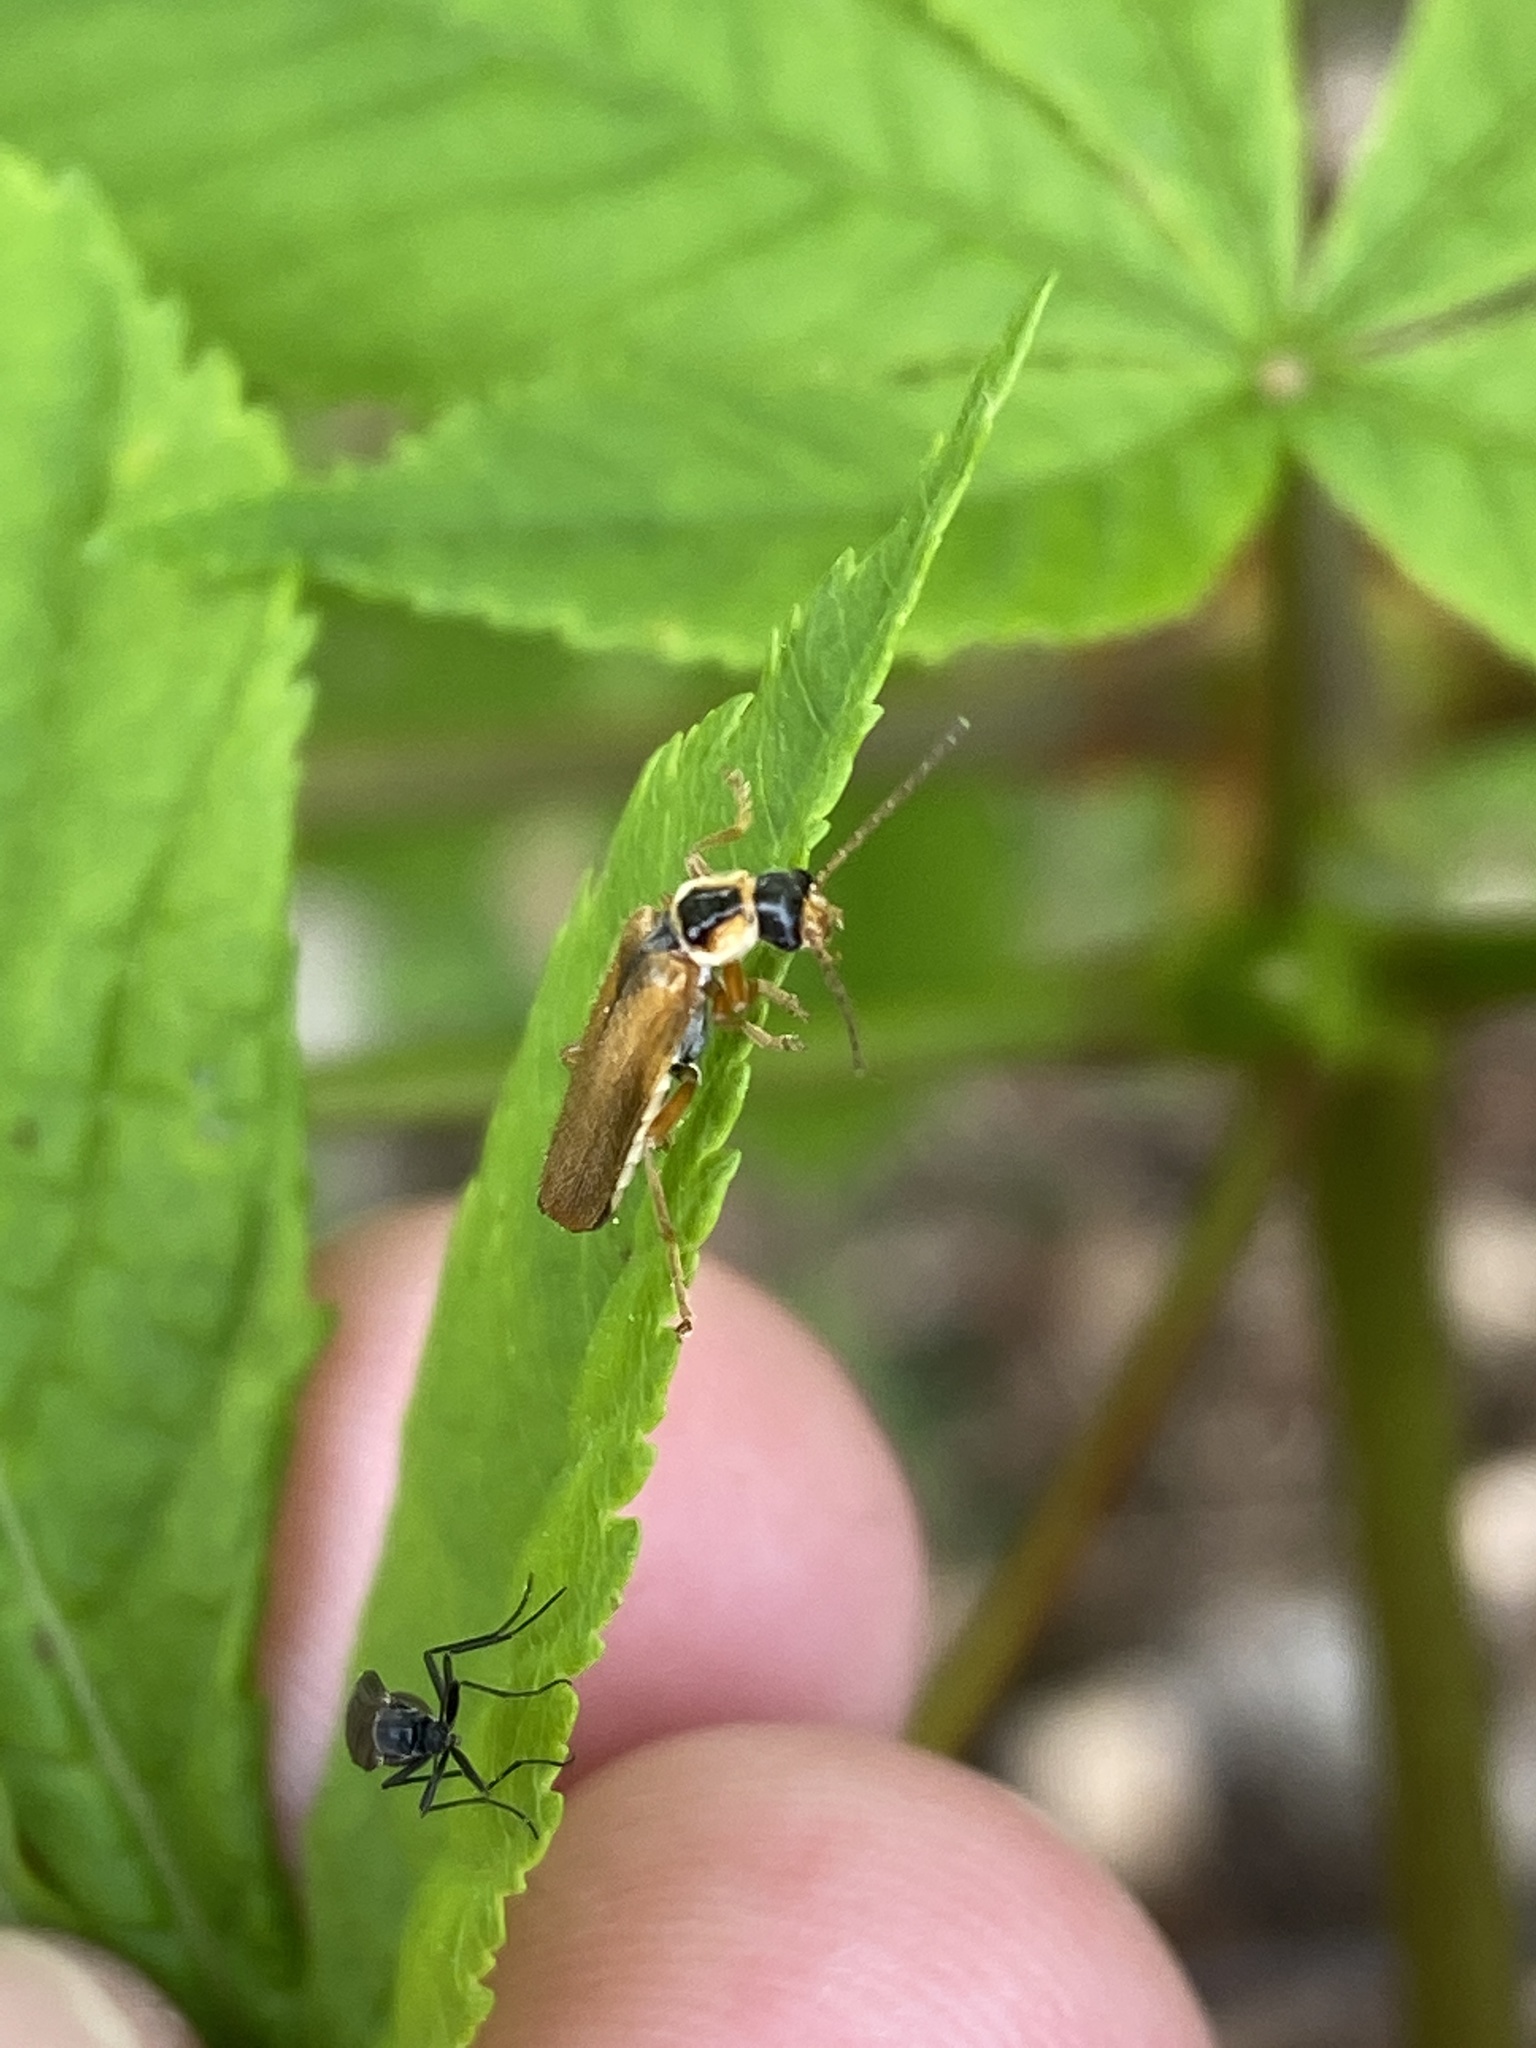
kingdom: Animalia
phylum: Arthropoda
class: Insecta
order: Coleoptera
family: Cantharidae
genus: Cantharis
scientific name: Cantharis decipiens
